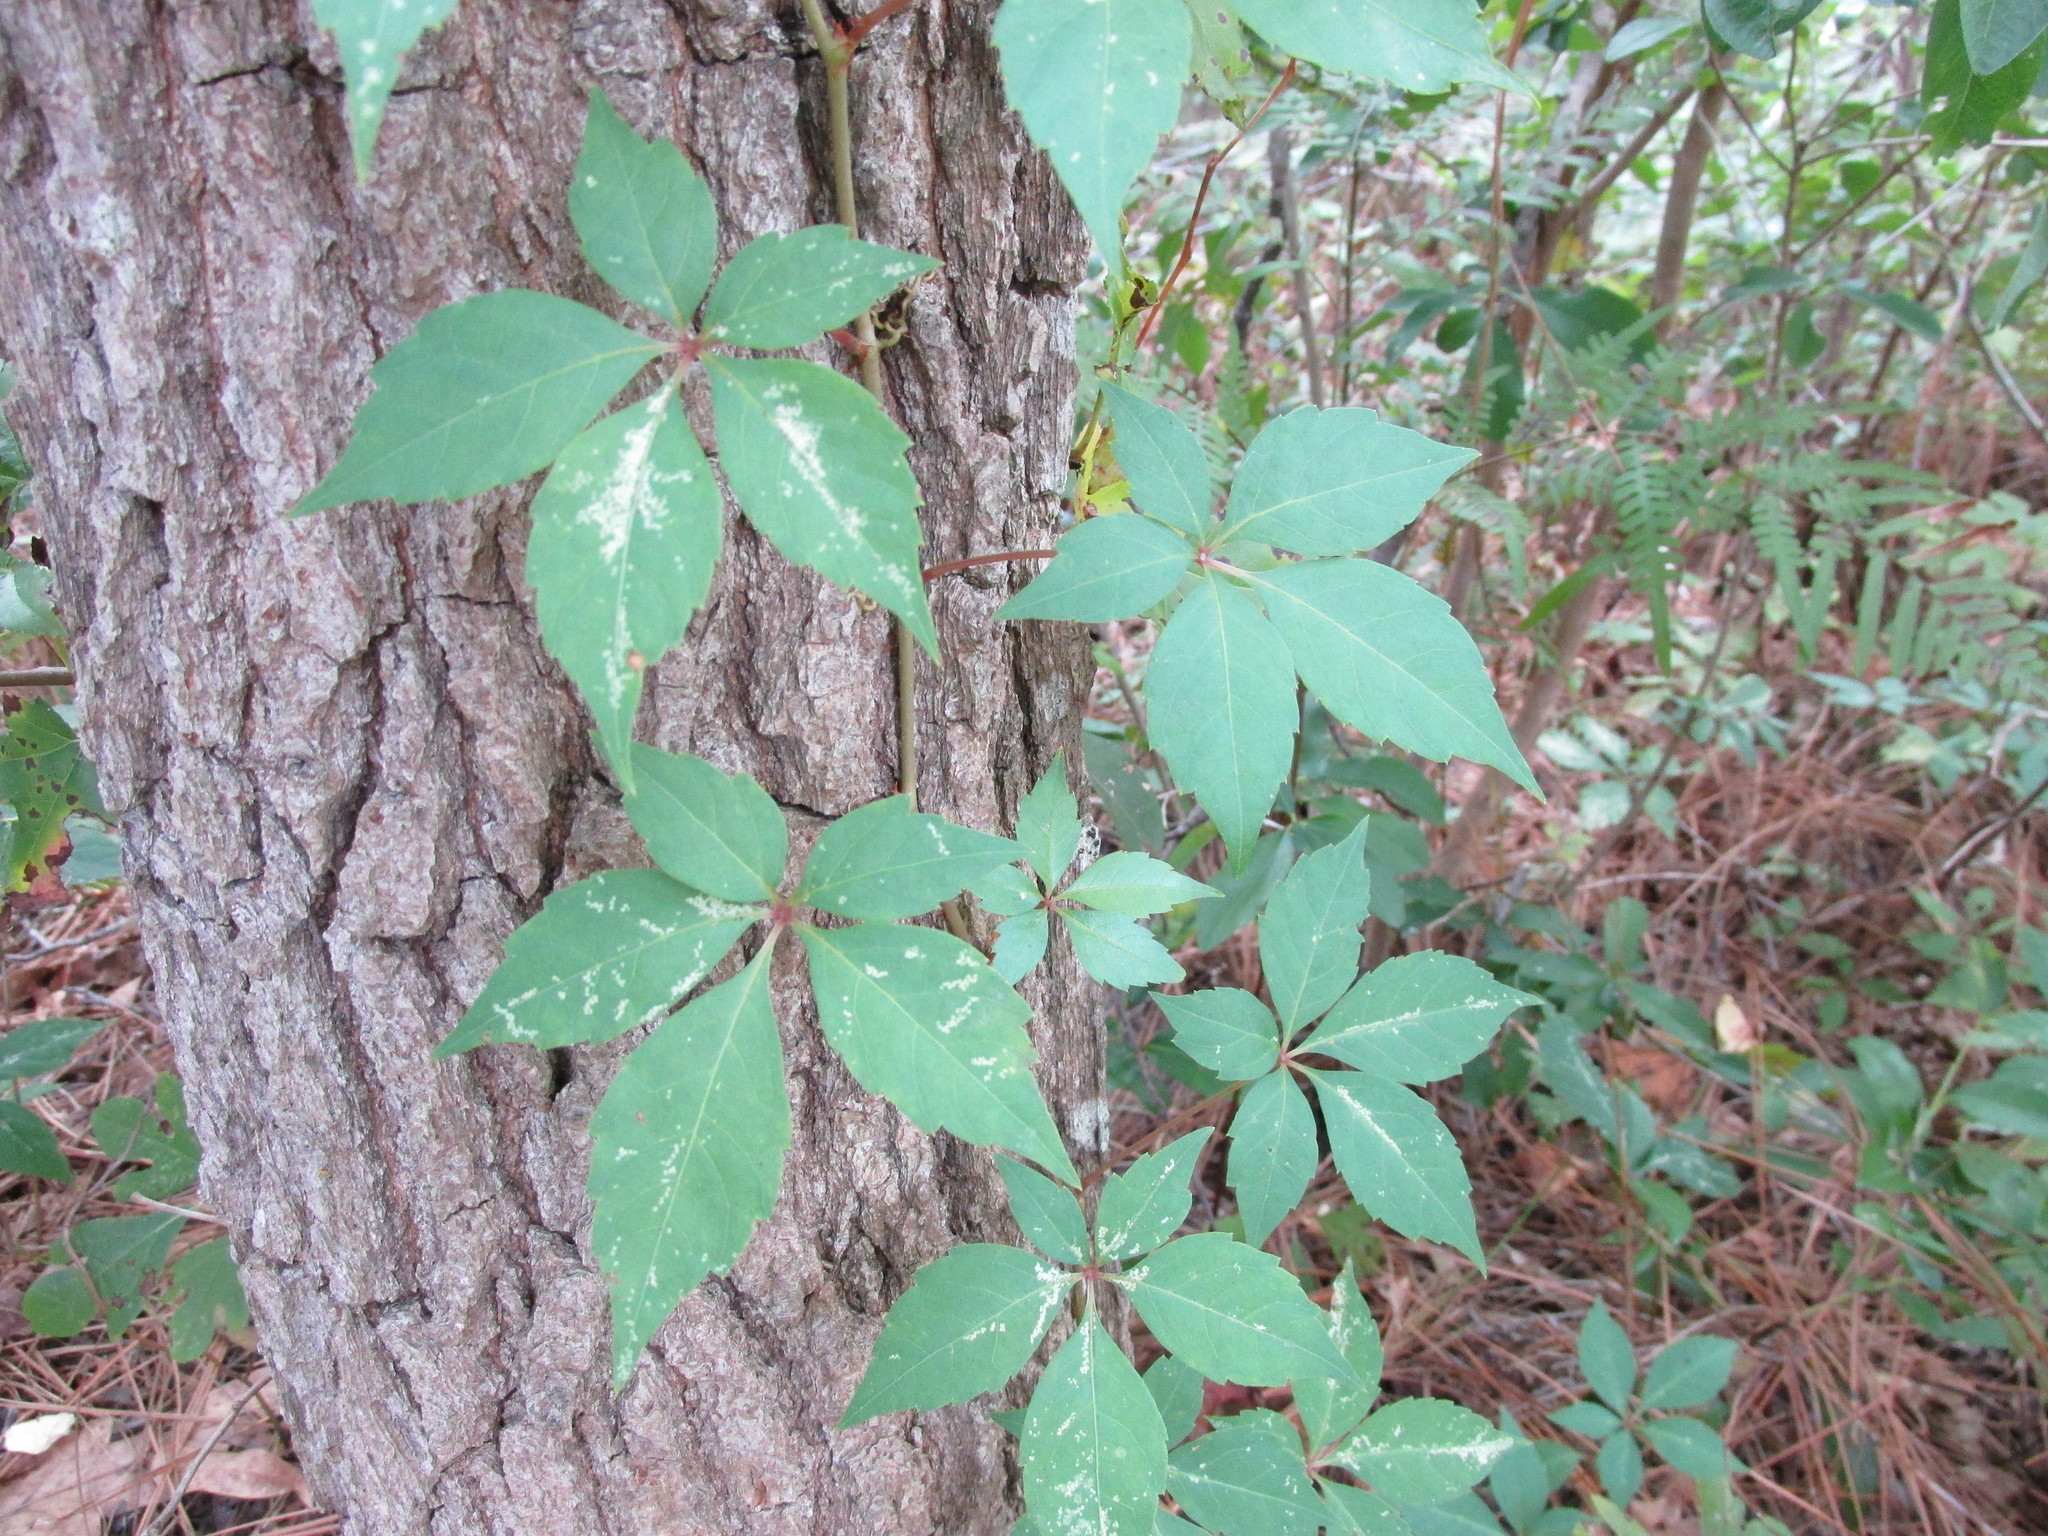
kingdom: Plantae
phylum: Tracheophyta
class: Magnoliopsida
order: Vitales
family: Vitaceae
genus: Parthenocissus
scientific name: Parthenocissus quinquefolia
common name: Virginia-creeper
